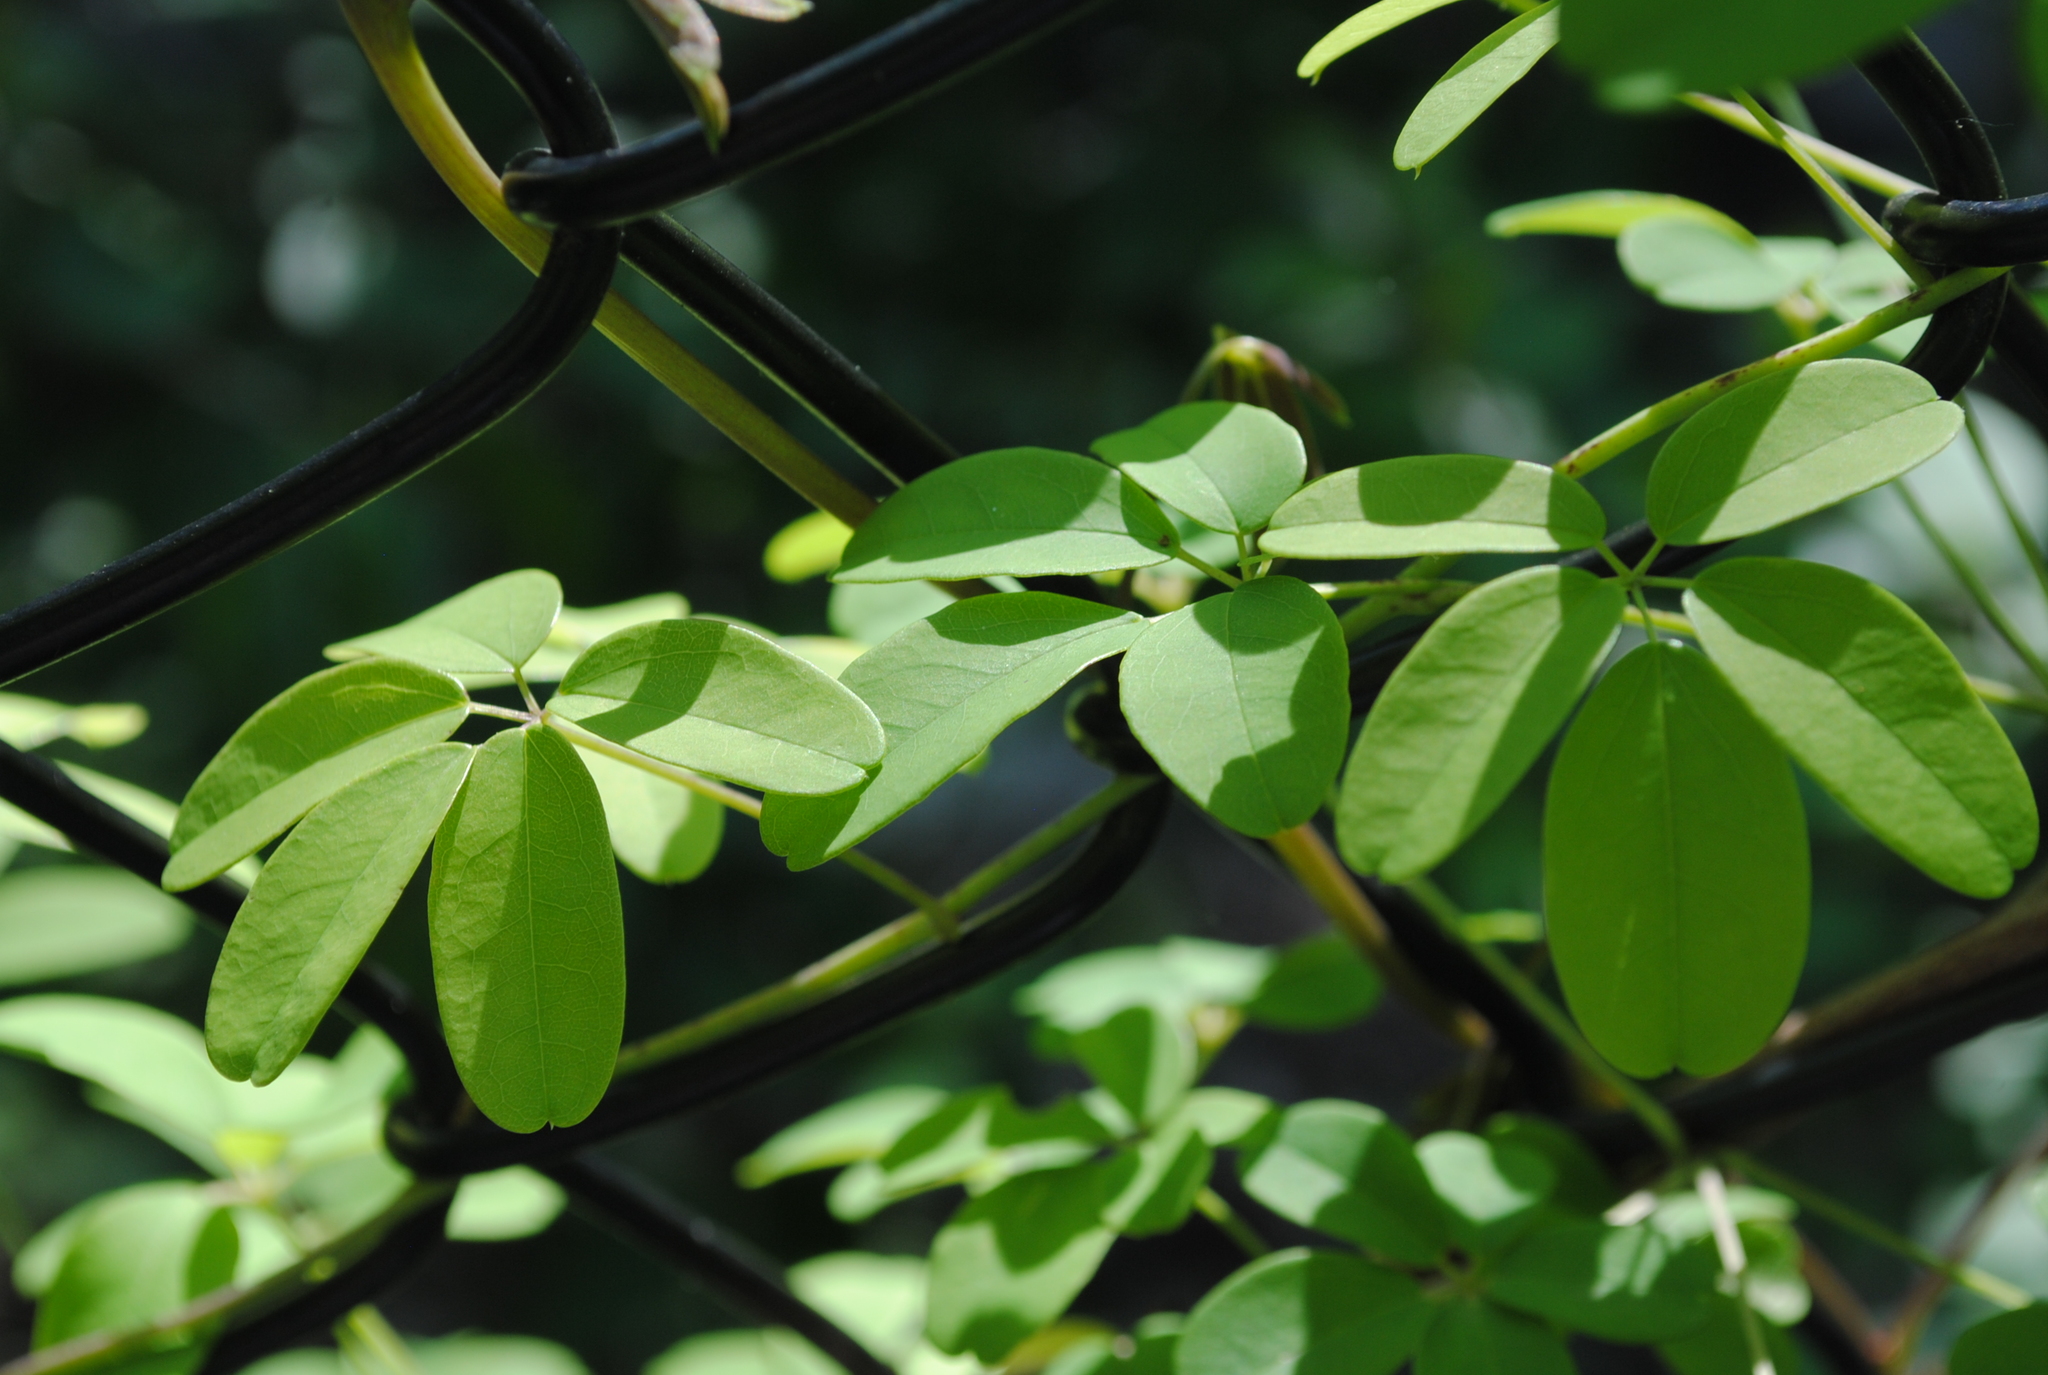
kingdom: Plantae
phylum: Tracheophyta
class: Magnoliopsida
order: Ranunculales
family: Lardizabalaceae
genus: Akebia
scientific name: Akebia quinata
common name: Five-leaf akebia
